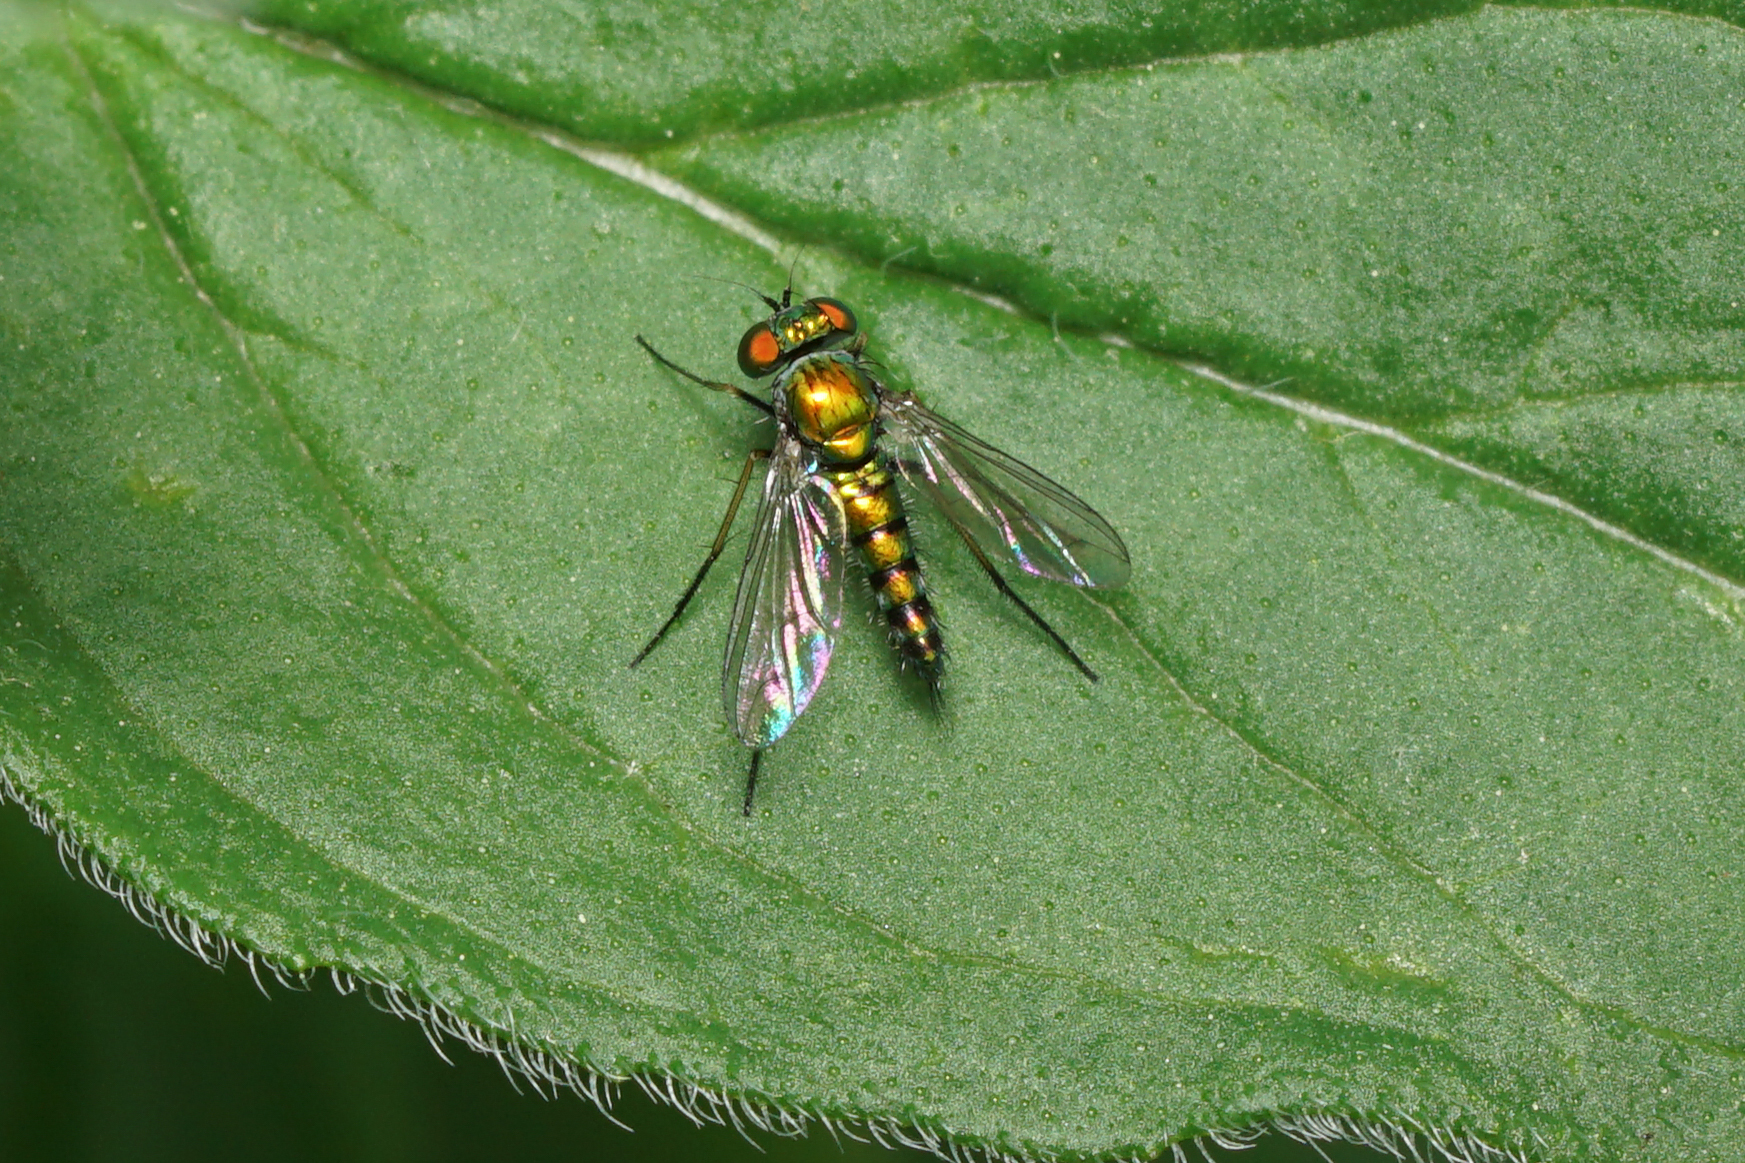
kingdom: Animalia
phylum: Arthropoda
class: Insecta
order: Diptera
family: Dolichopodidae
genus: Condylostylus
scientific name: Condylostylus caudatus
